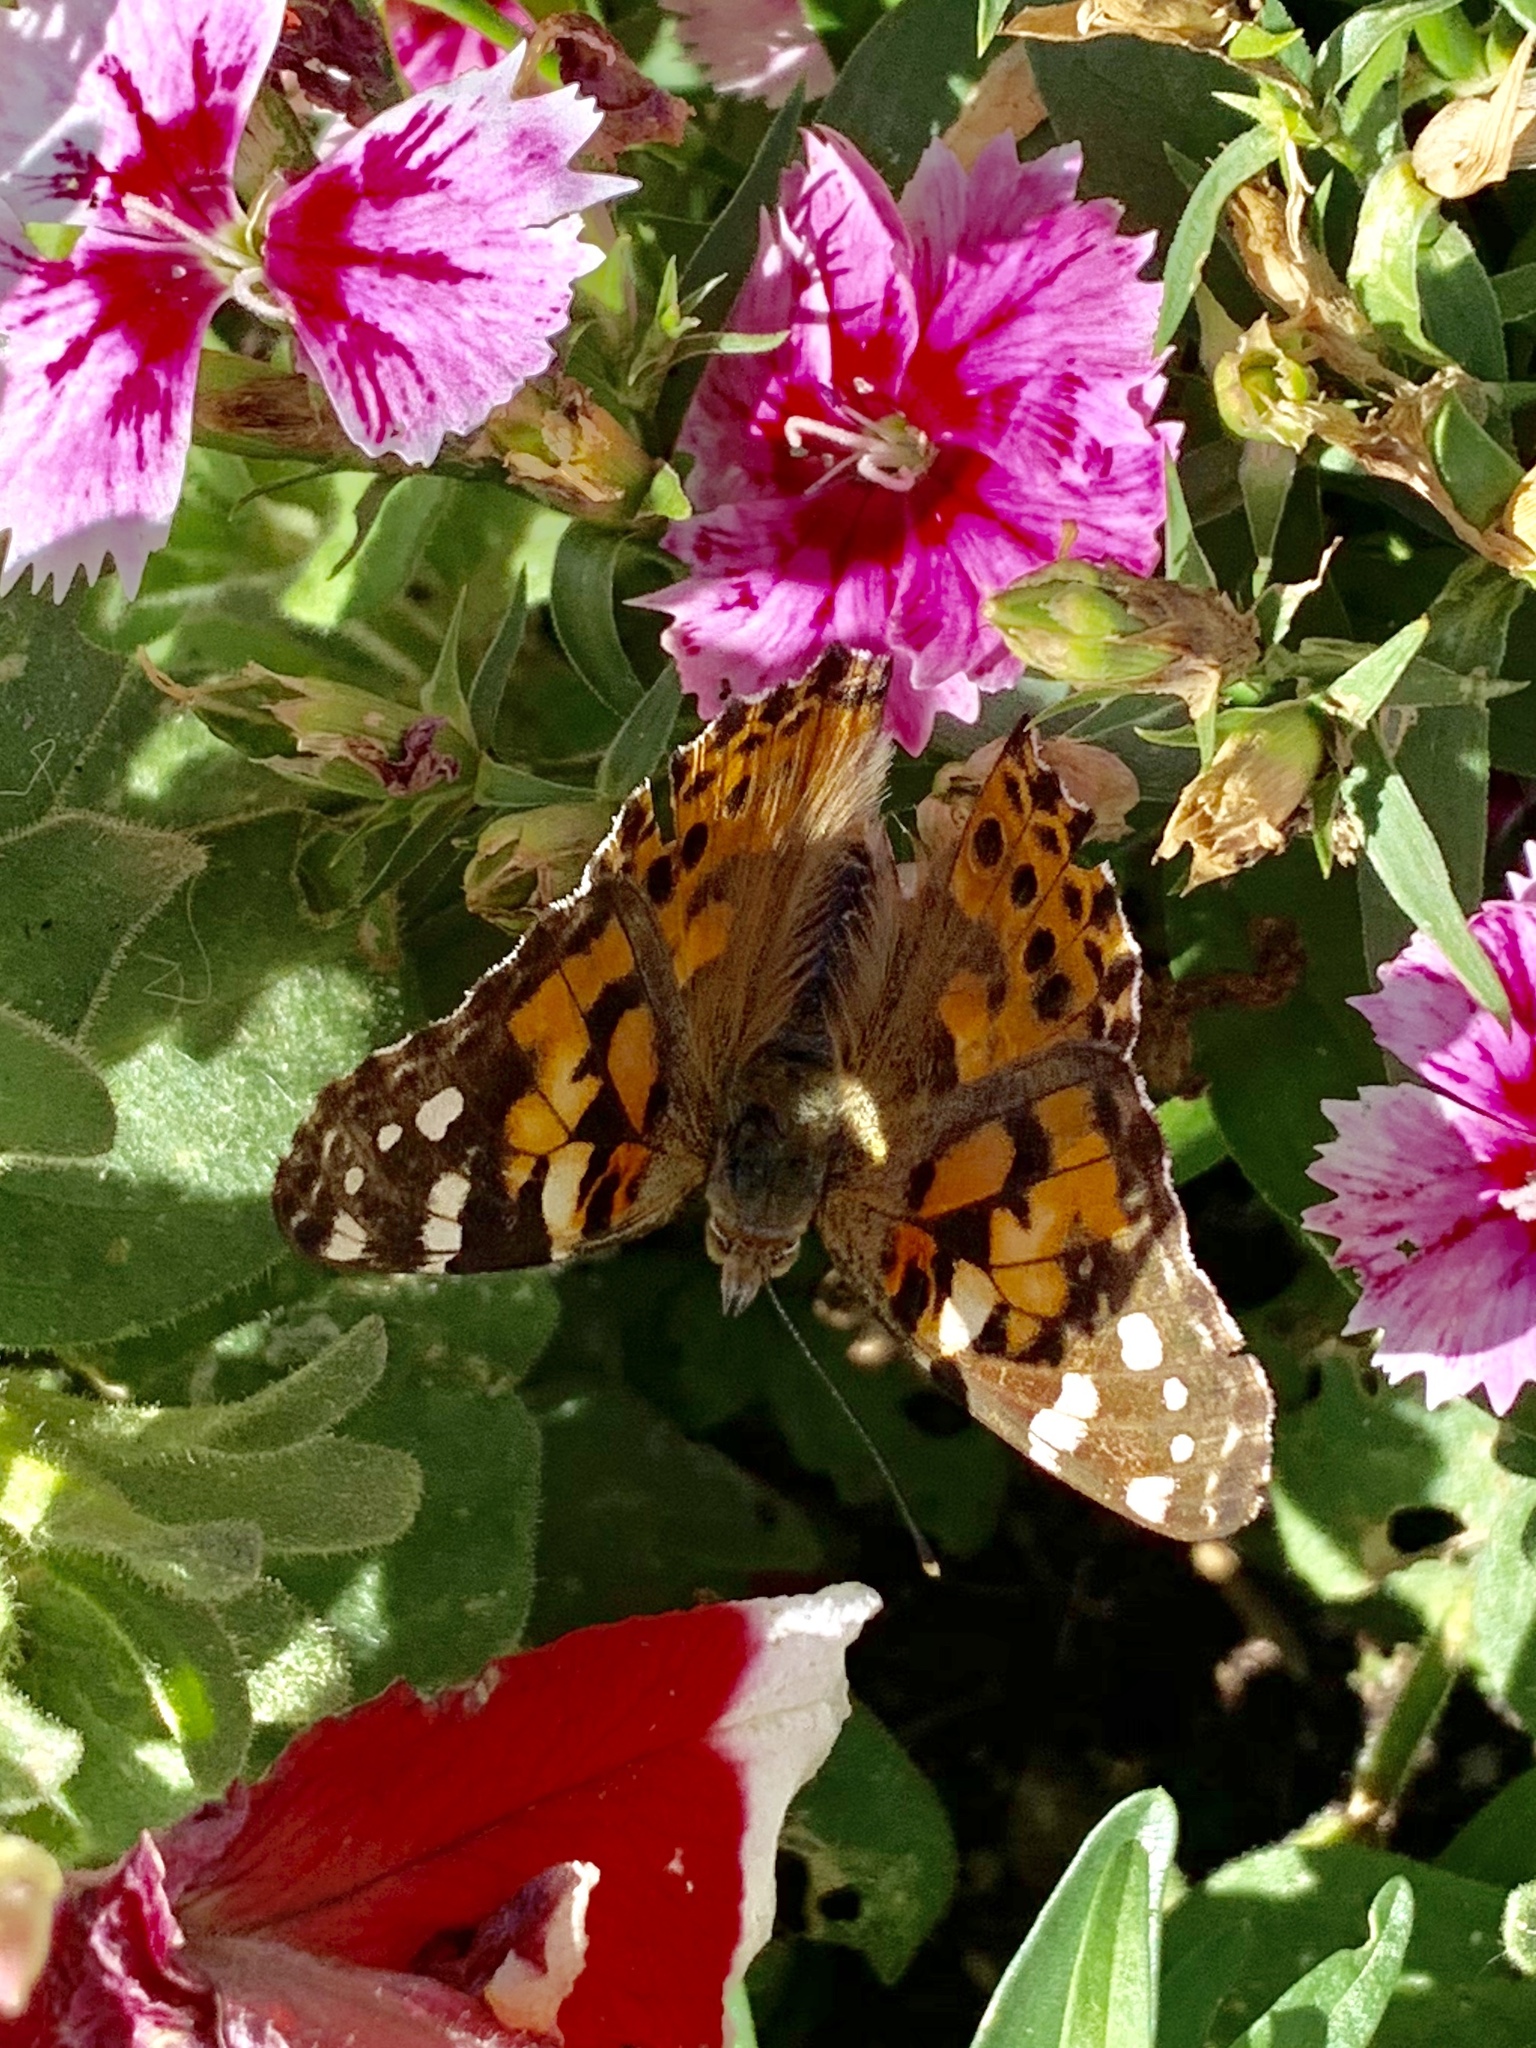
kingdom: Animalia
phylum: Arthropoda
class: Insecta
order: Lepidoptera
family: Nymphalidae
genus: Vanessa
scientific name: Vanessa cardui
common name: Painted lady
